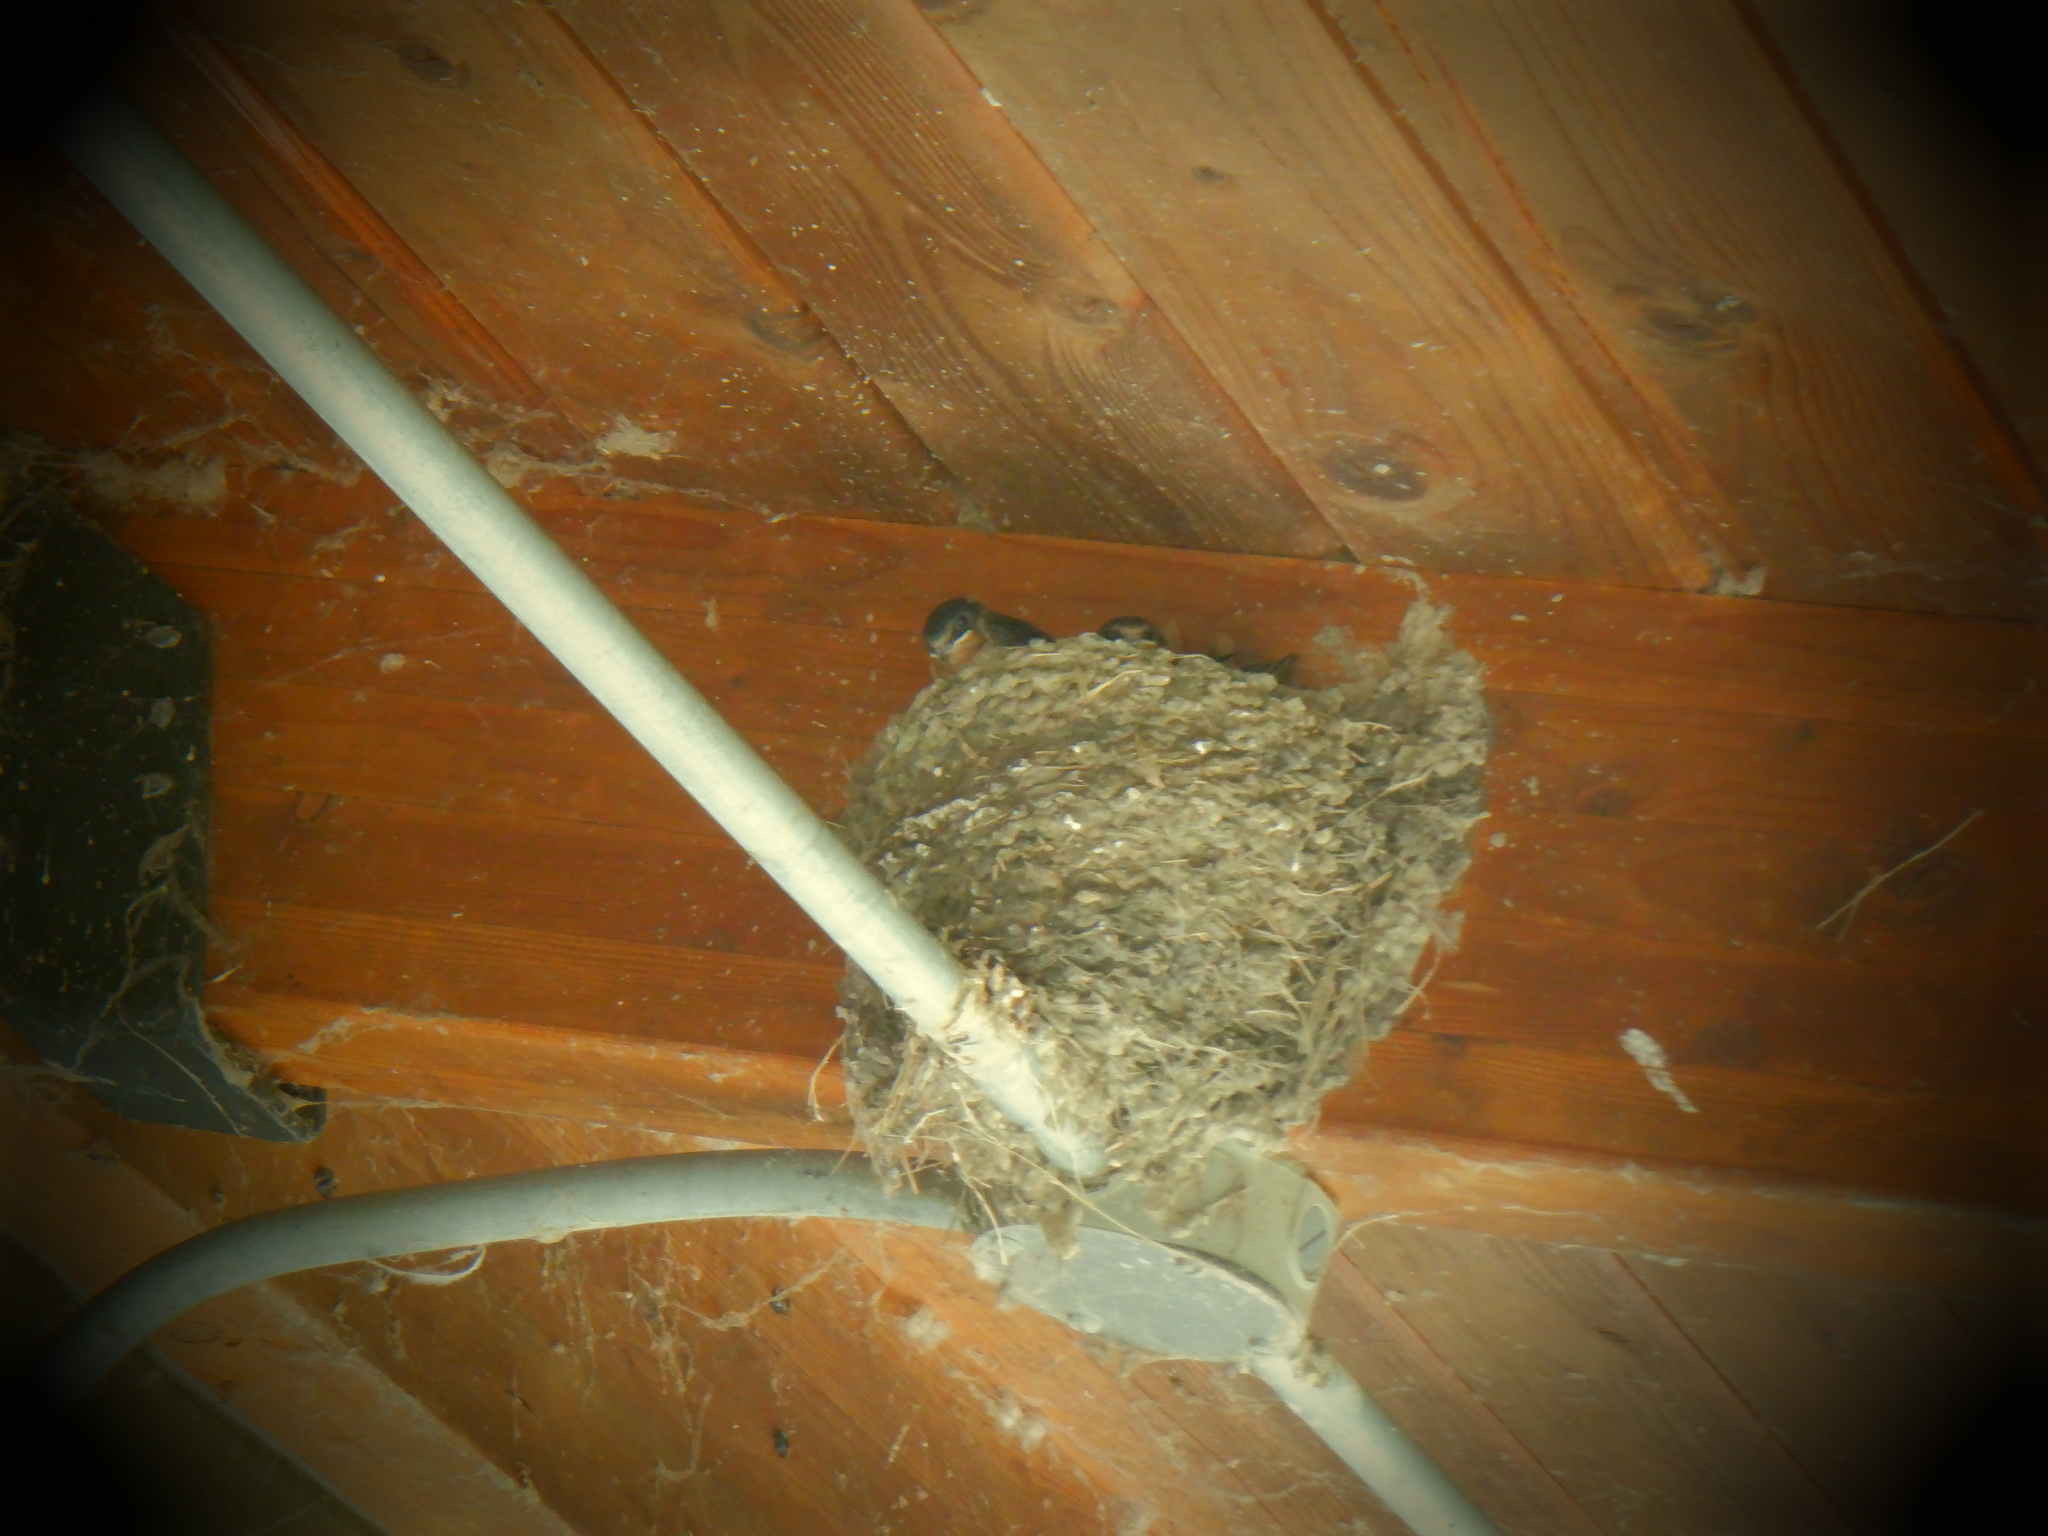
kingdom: Animalia
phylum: Chordata
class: Aves
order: Passeriformes
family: Hirundinidae
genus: Hirundo
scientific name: Hirundo rustica
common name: Barn swallow
